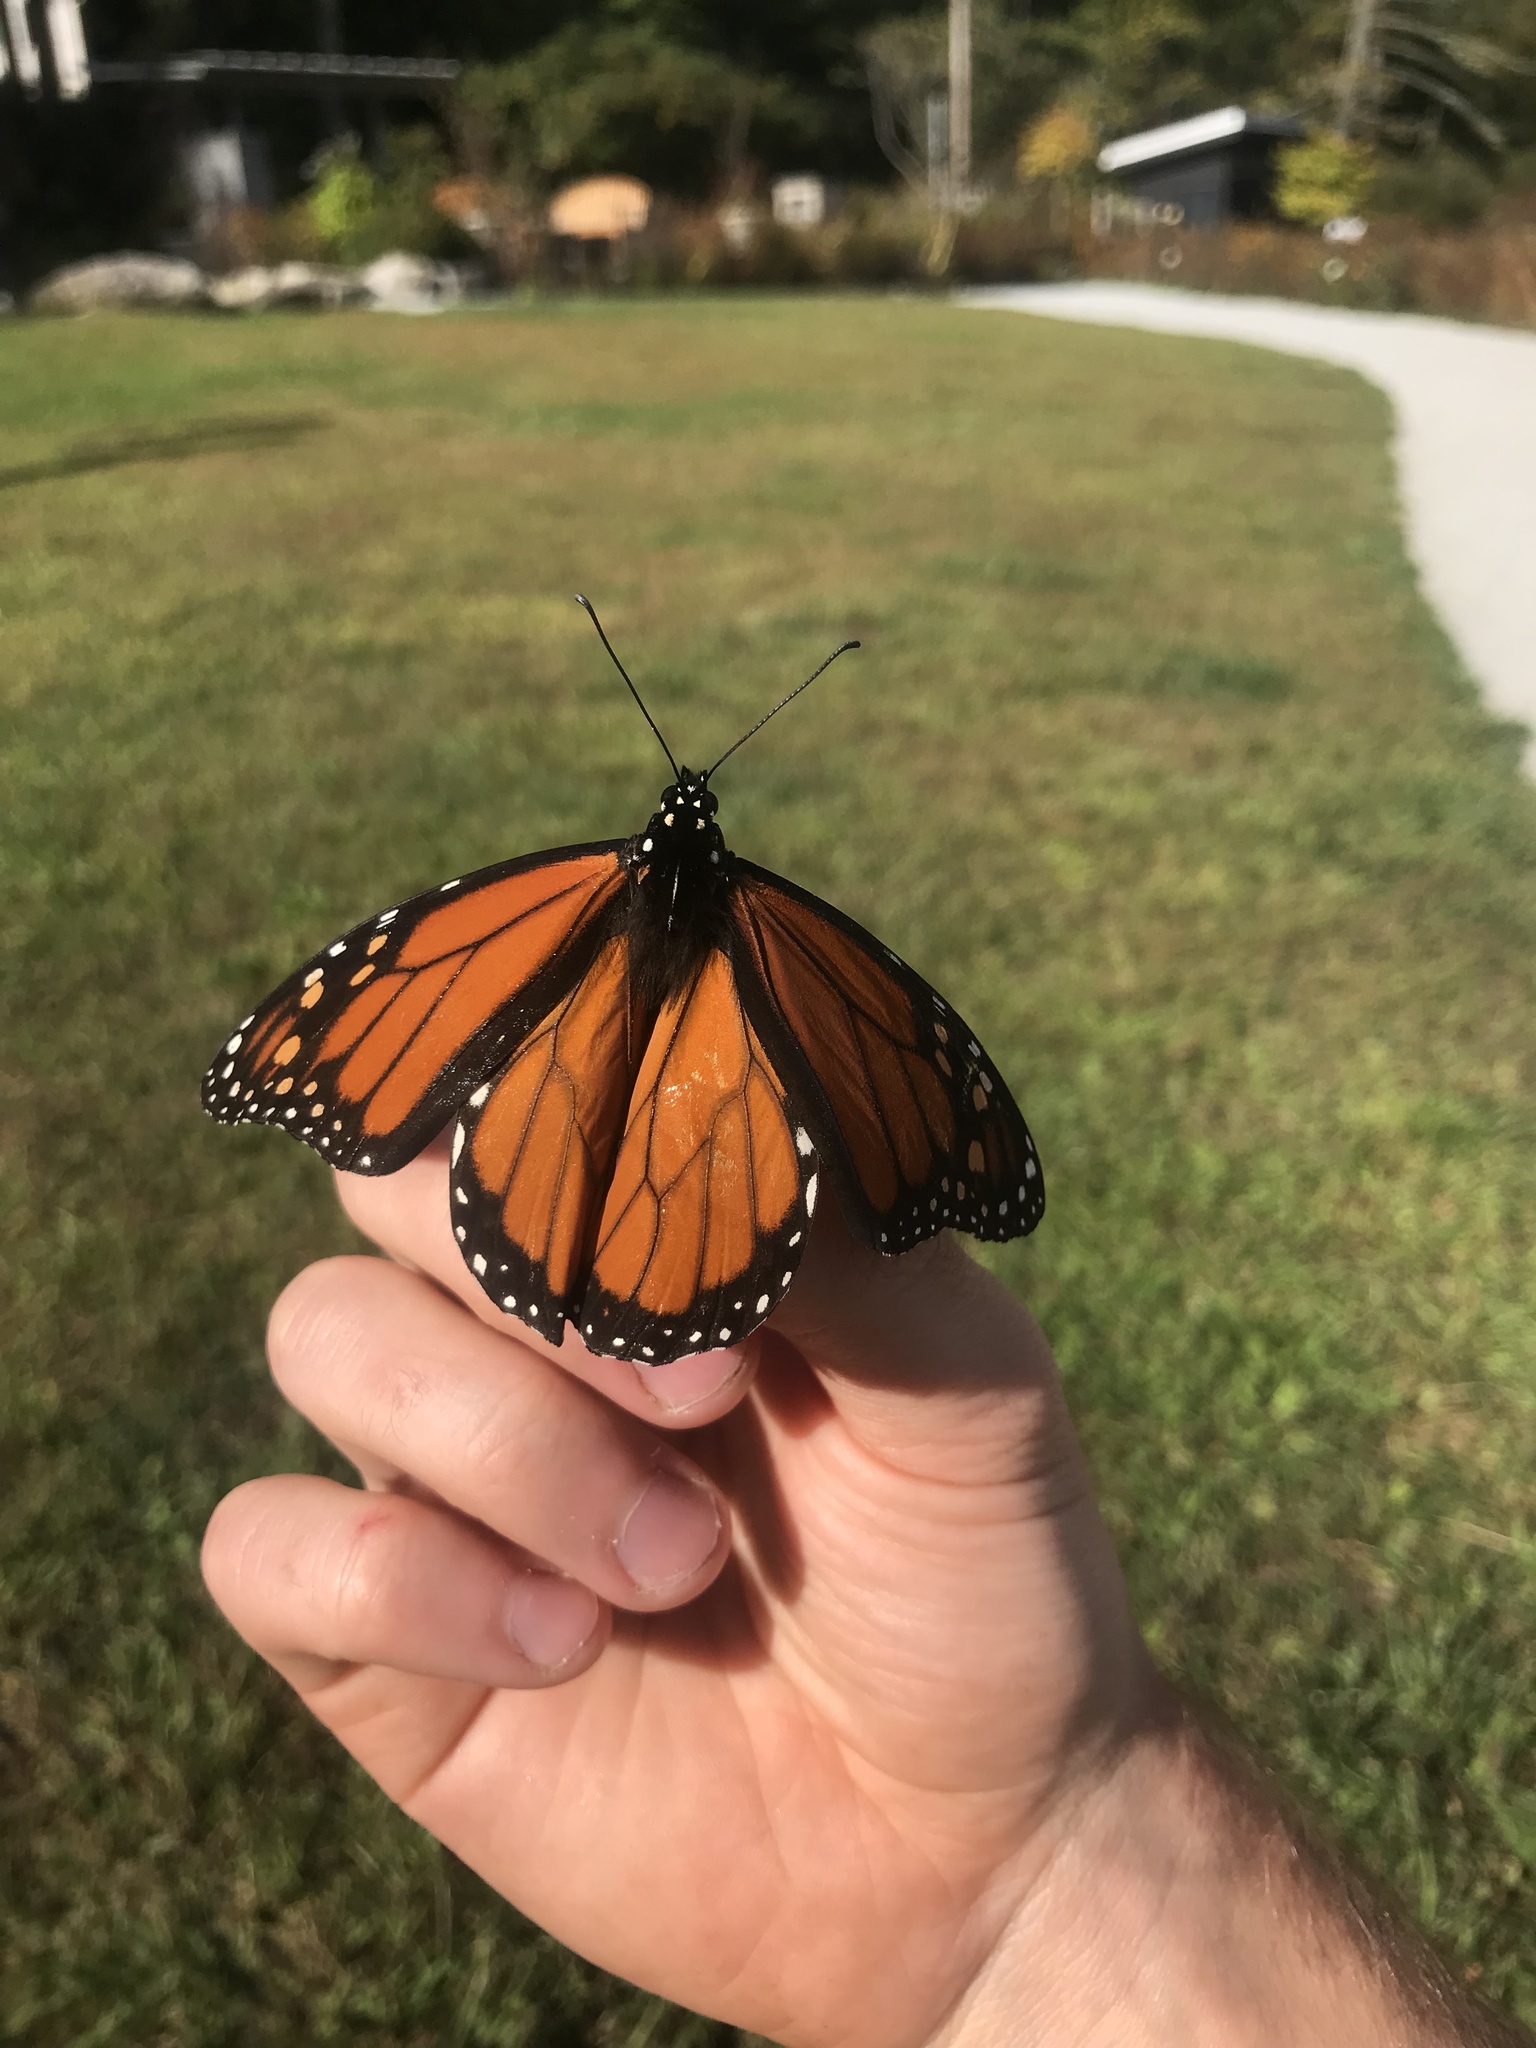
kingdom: Animalia
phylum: Arthropoda
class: Insecta
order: Lepidoptera
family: Nymphalidae
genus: Danaus
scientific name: Danaus plexippus
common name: Monarch
